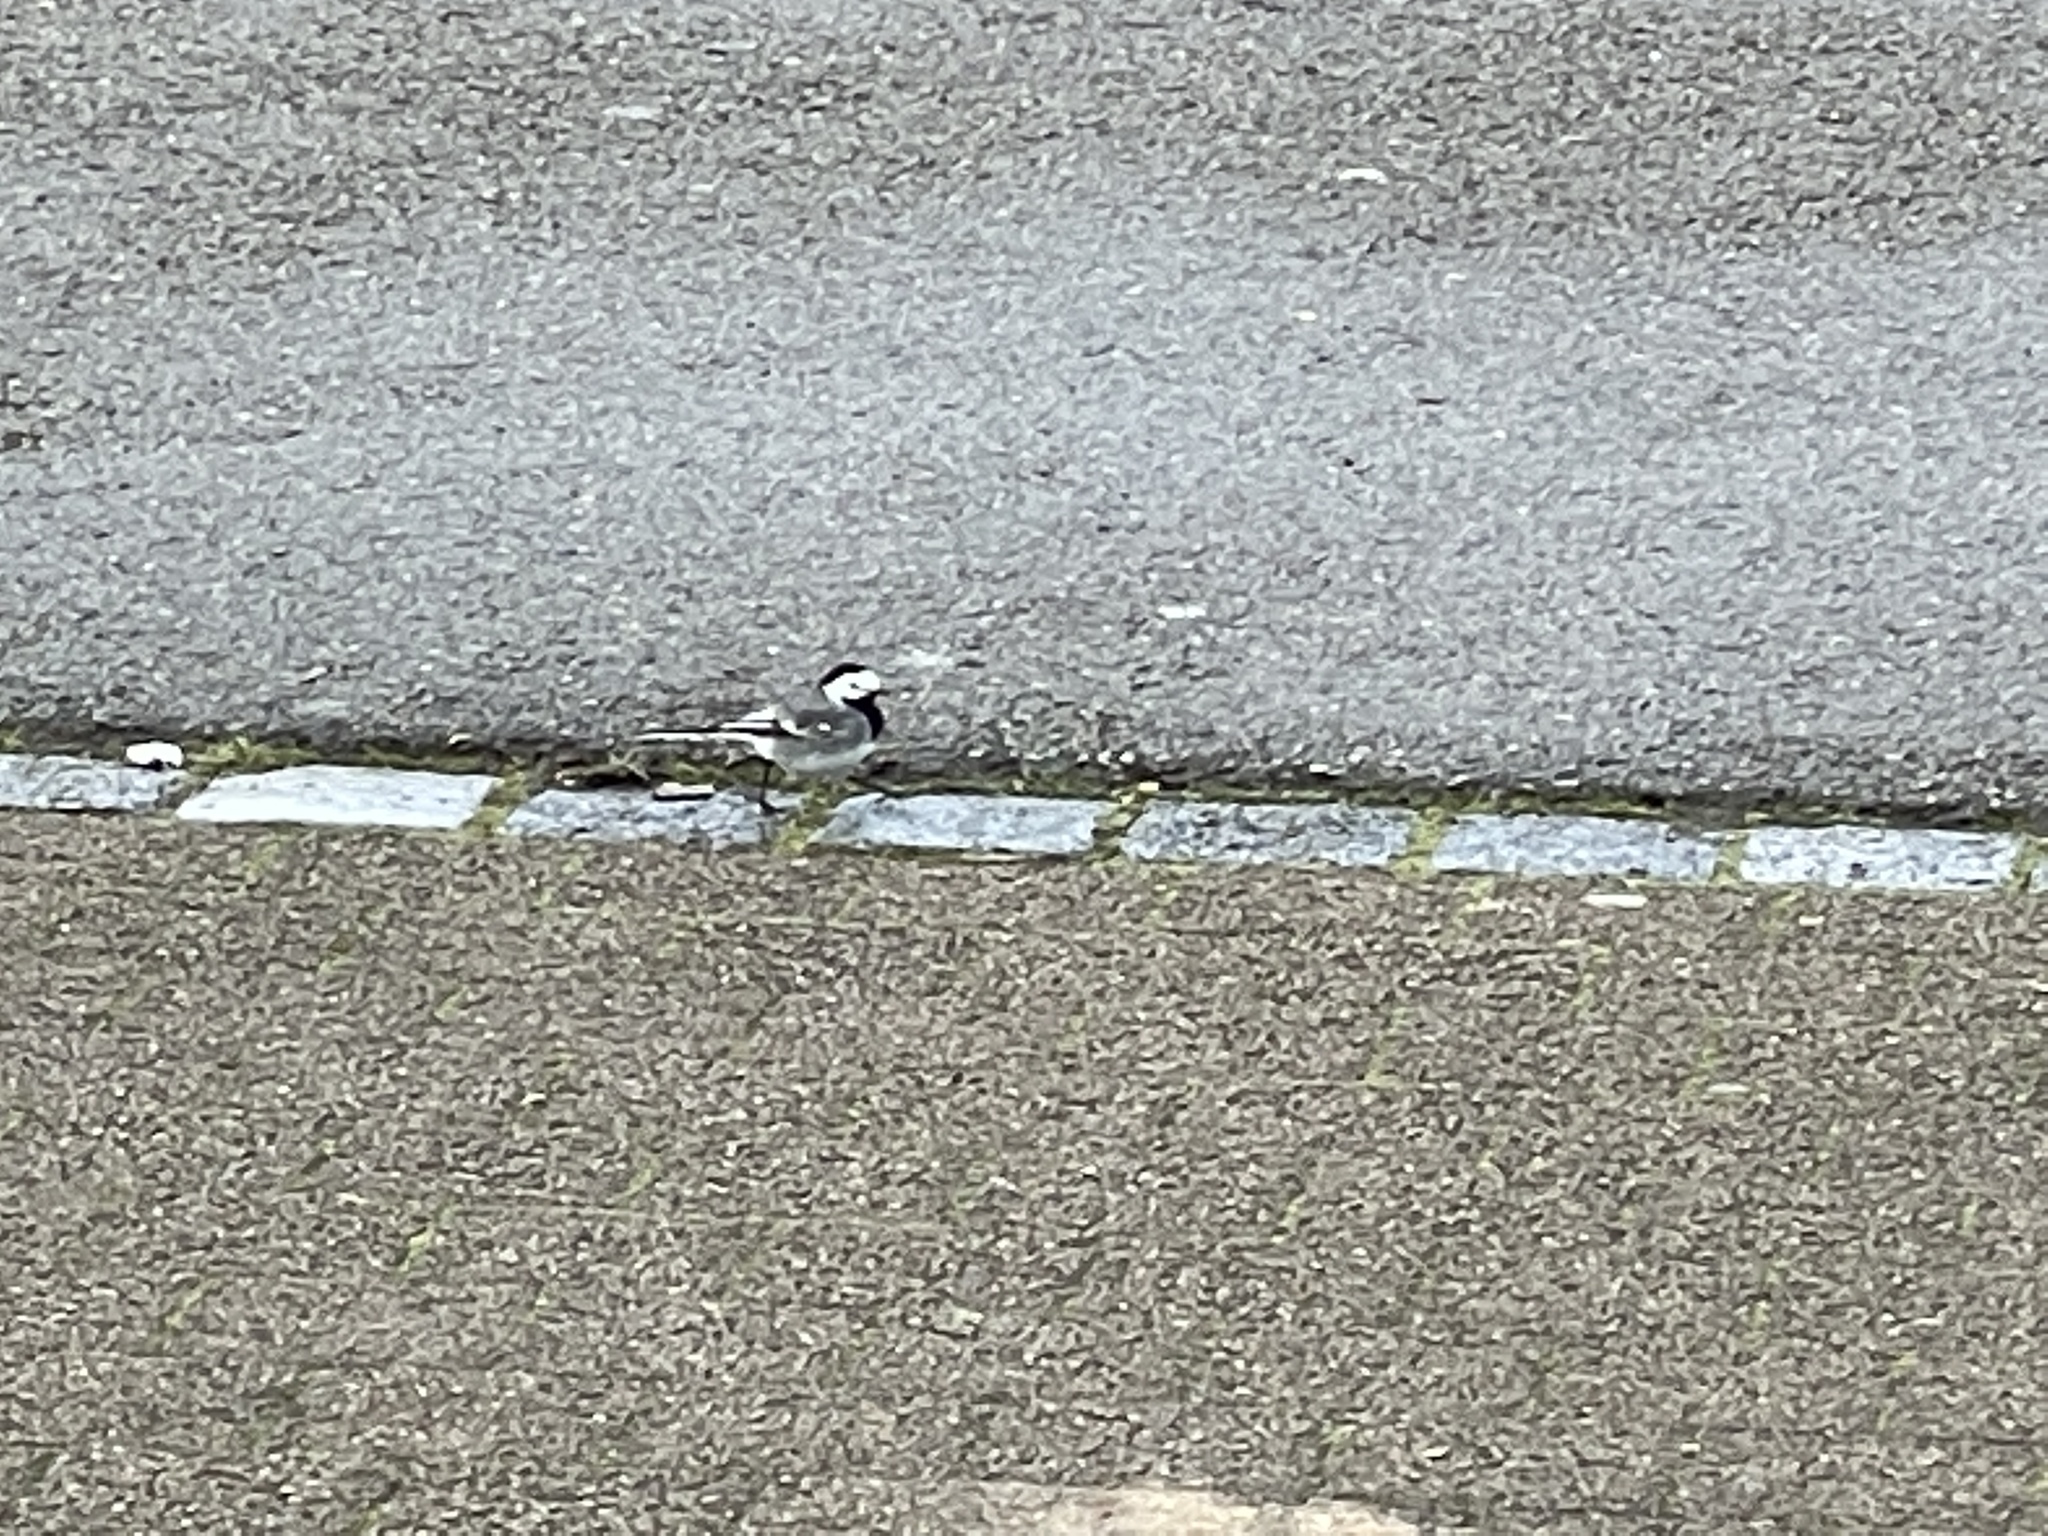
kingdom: Animalia
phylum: Chordata
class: Aves
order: Passeriformes
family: Motacillidae
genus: Motacilla
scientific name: Motacilla alba
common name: White wagtail
